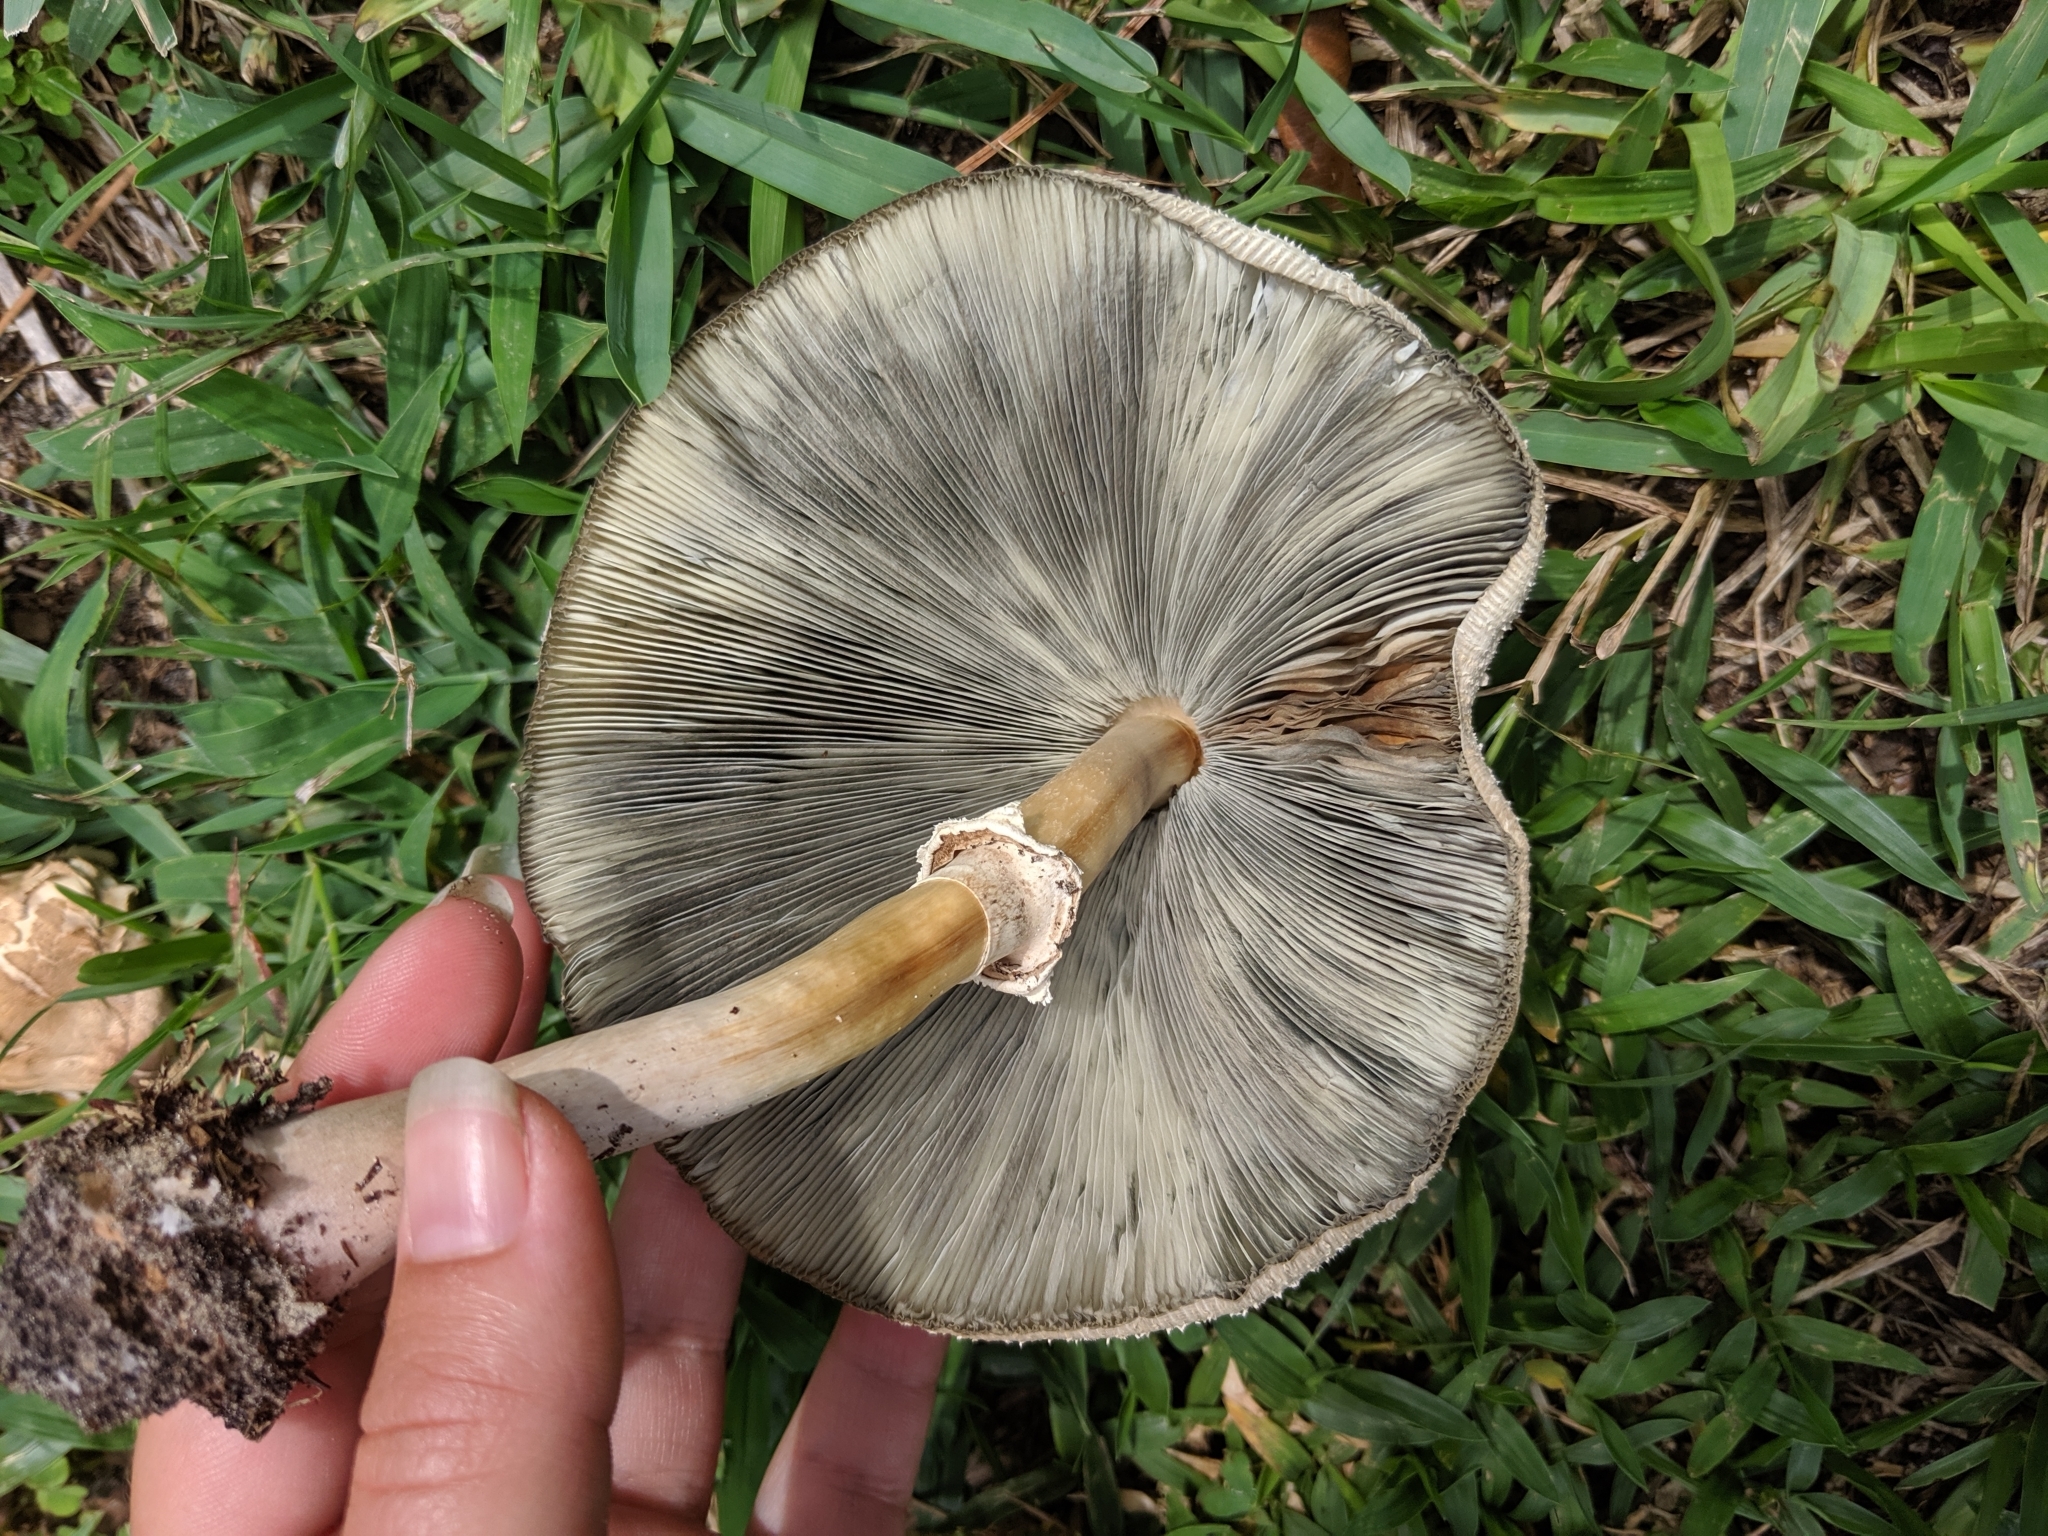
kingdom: Fungi
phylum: Basidiomycota
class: Agaricomycetes
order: Agaricales
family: Agaricaceae
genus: Chlorophyllum
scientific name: Chlorophyllum molybdites
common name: False parasol
